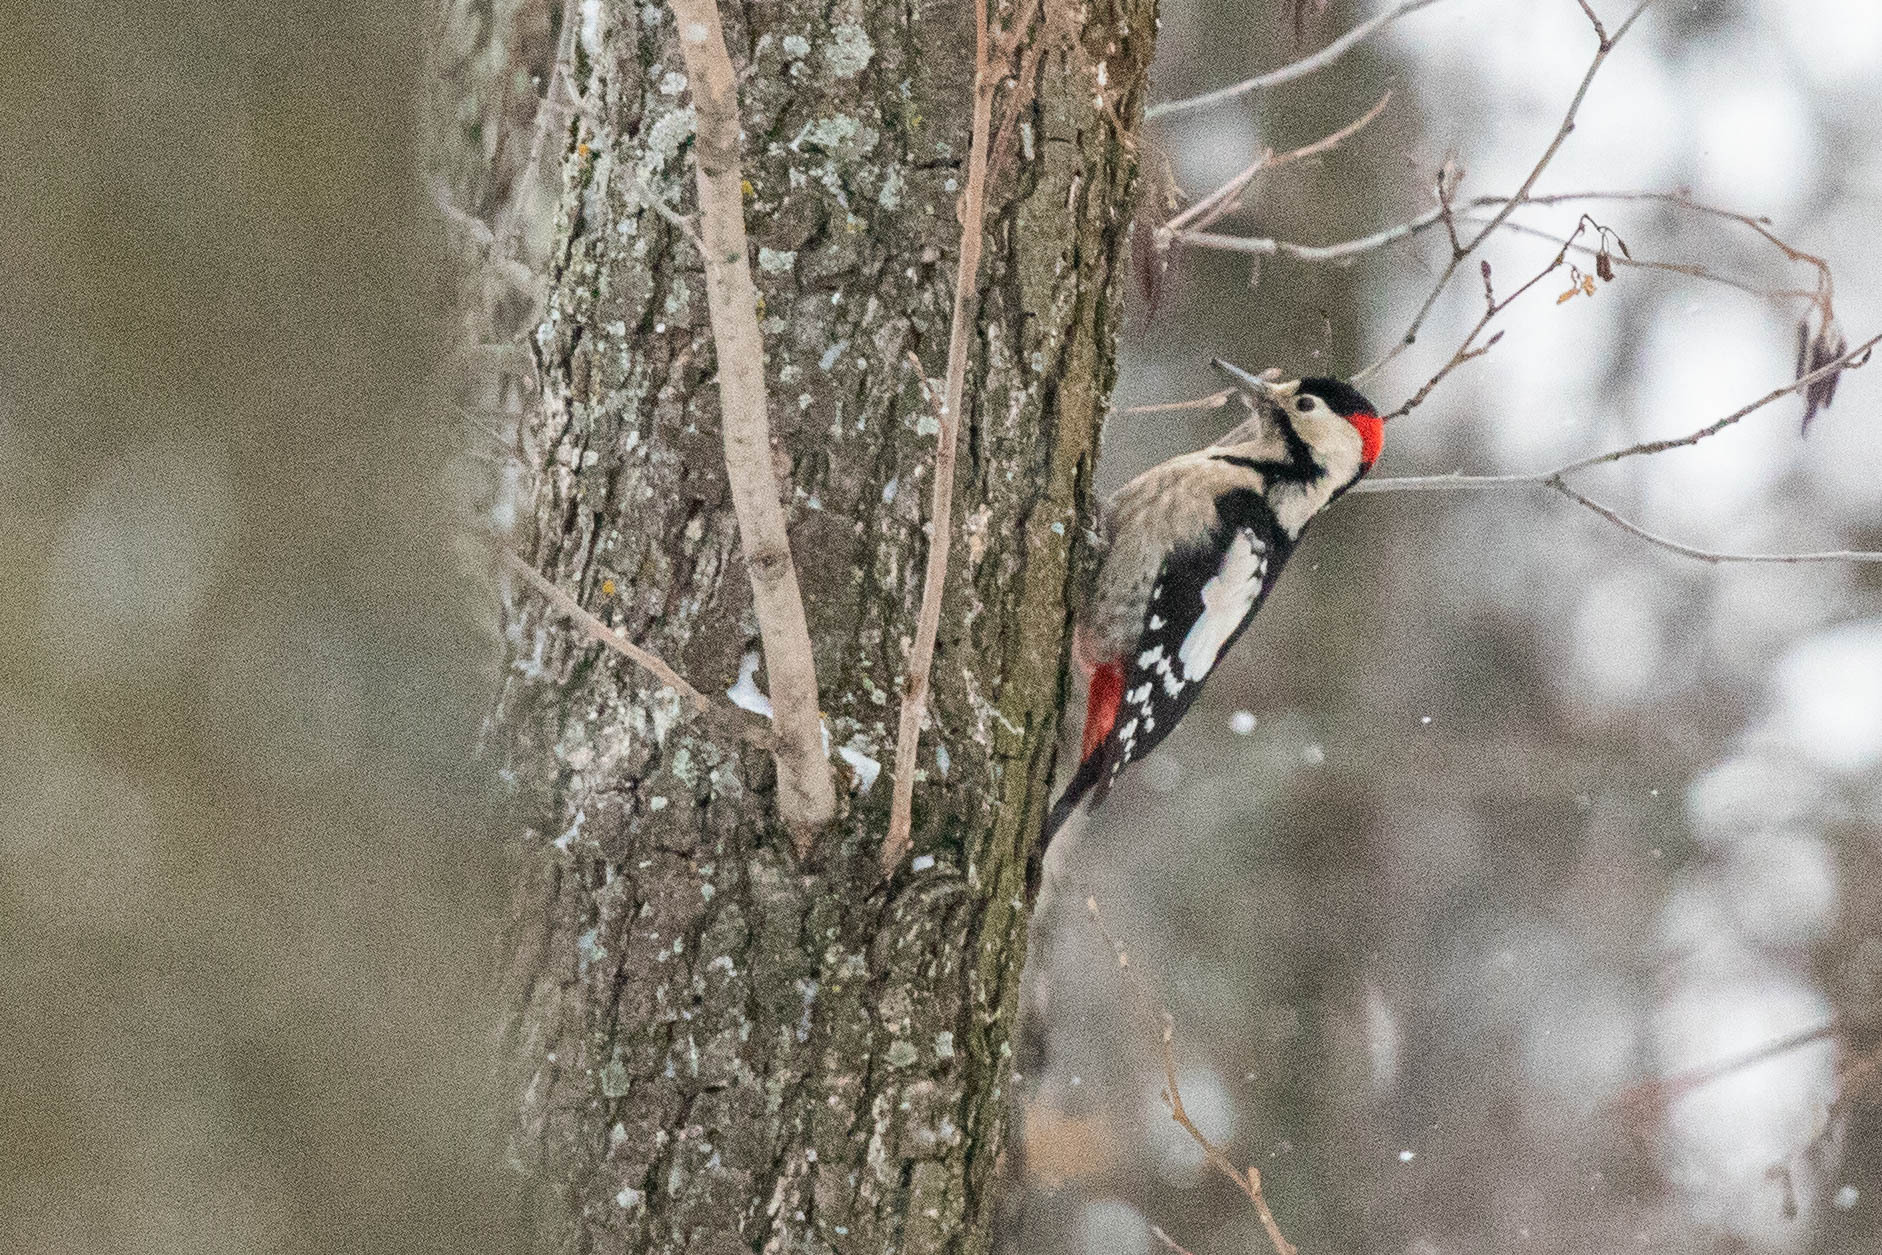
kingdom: Animalia
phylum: Chordata
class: Aves
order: Piciformes
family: Picidae
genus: Dendrocopos
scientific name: Dendrocopos syriacus
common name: Syrian woodpecker
